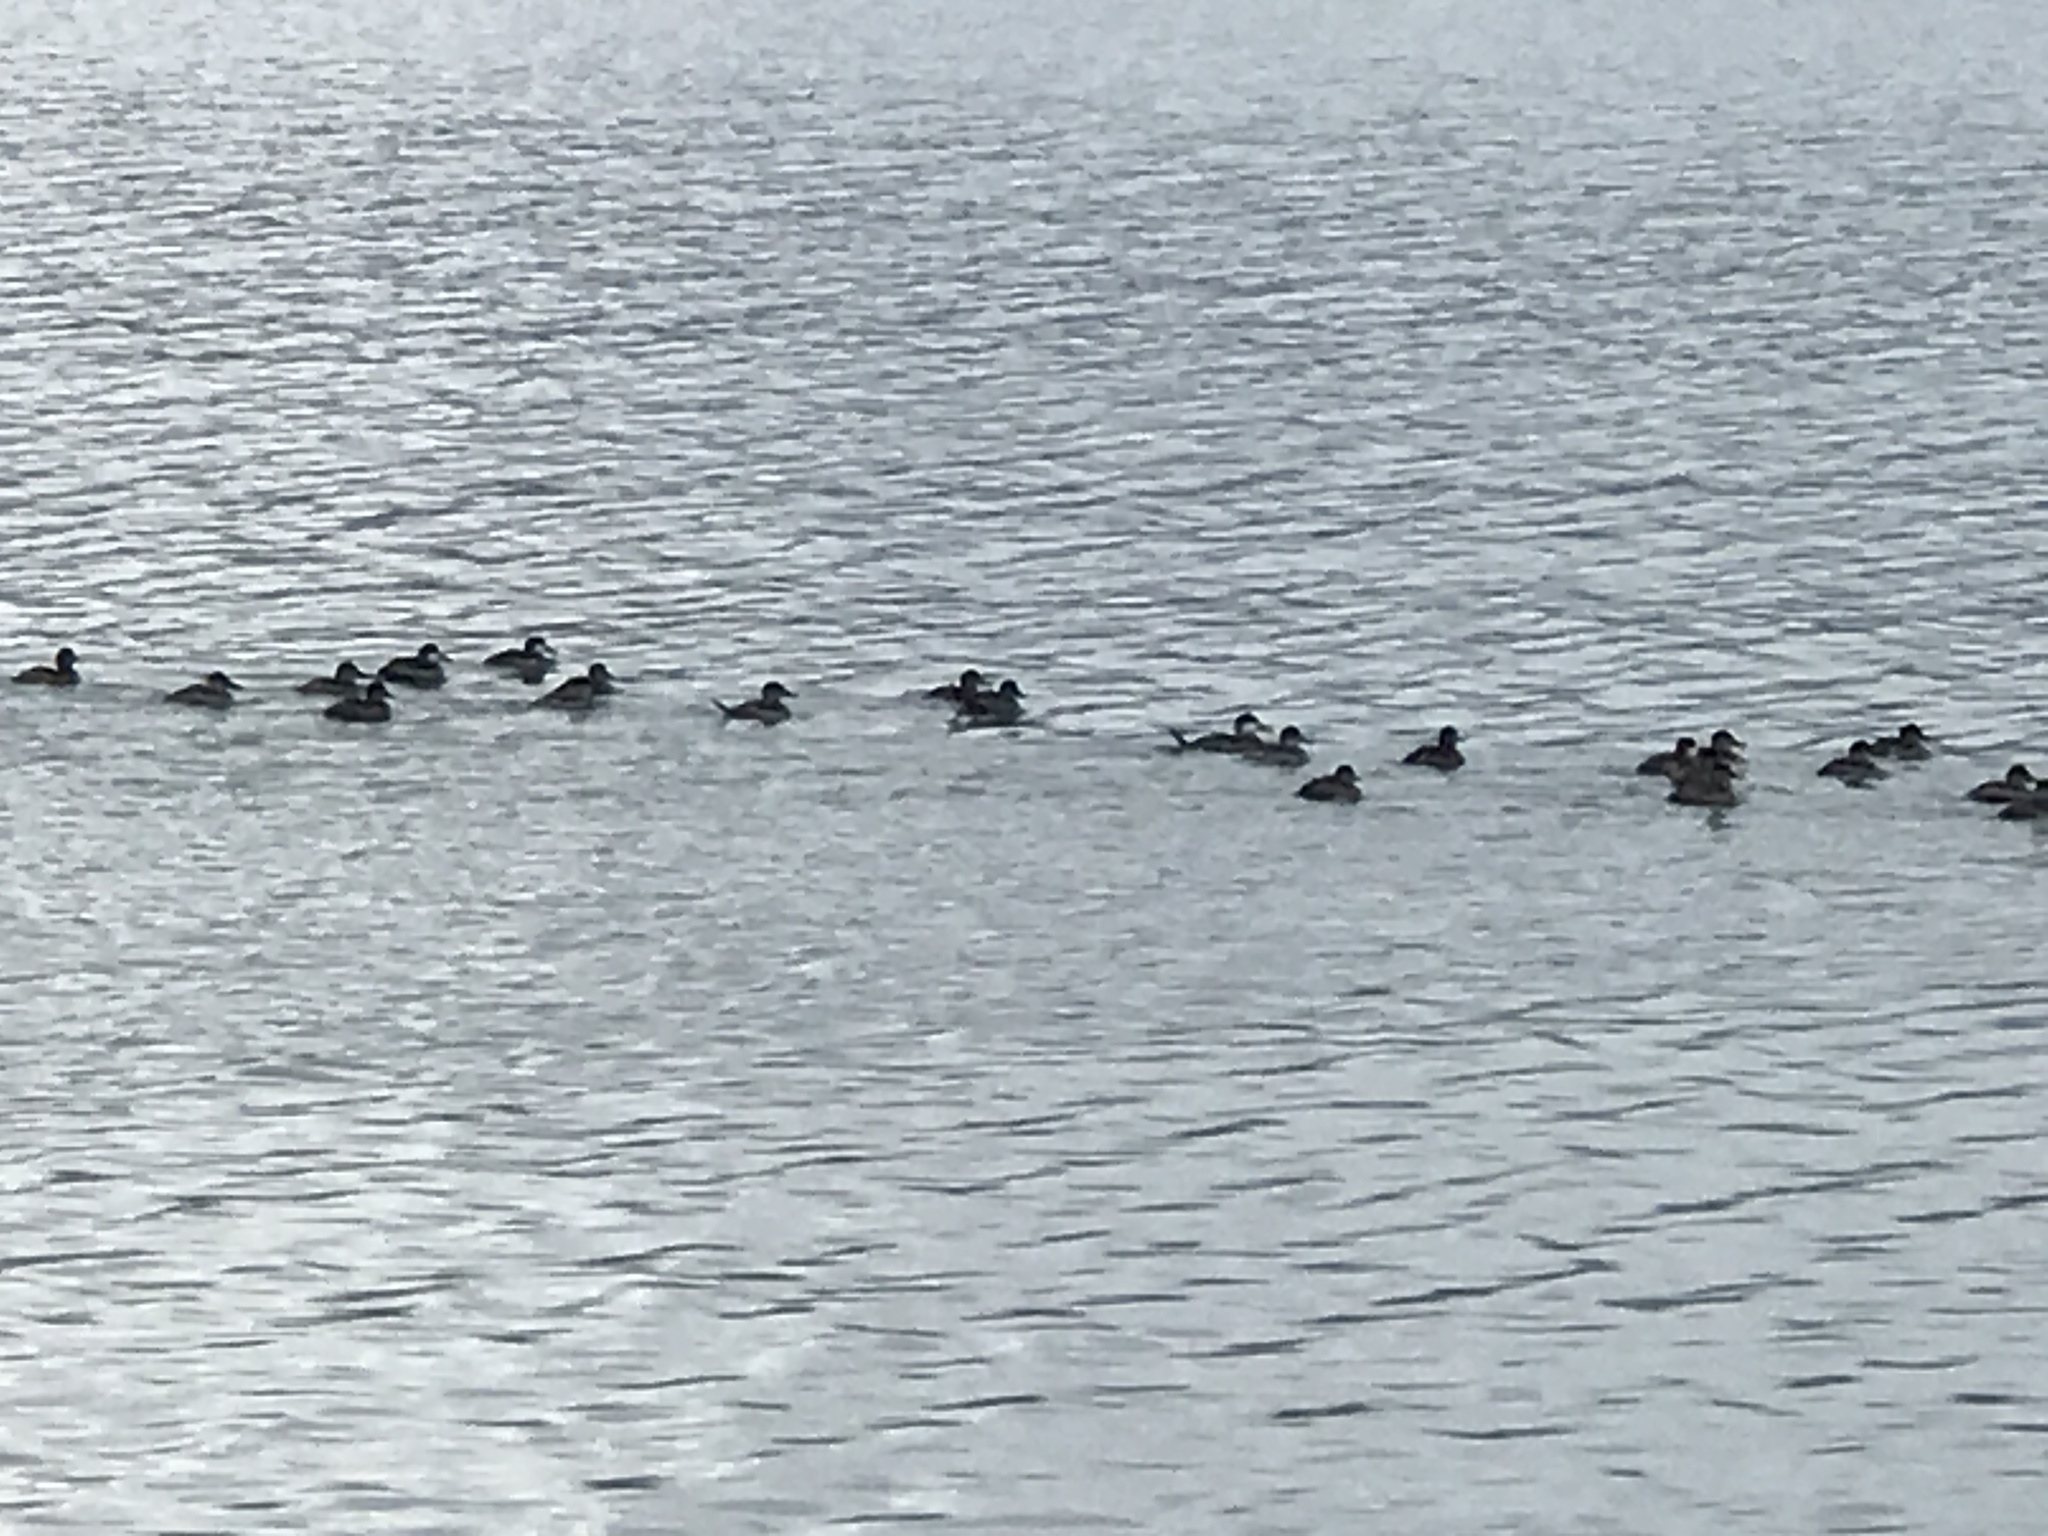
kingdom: Animalia
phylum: Chordata
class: Aves
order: Anseriformes
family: Anatidae
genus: Oxyura
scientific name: Oxyura jamaicensis
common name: Ruddy duck
